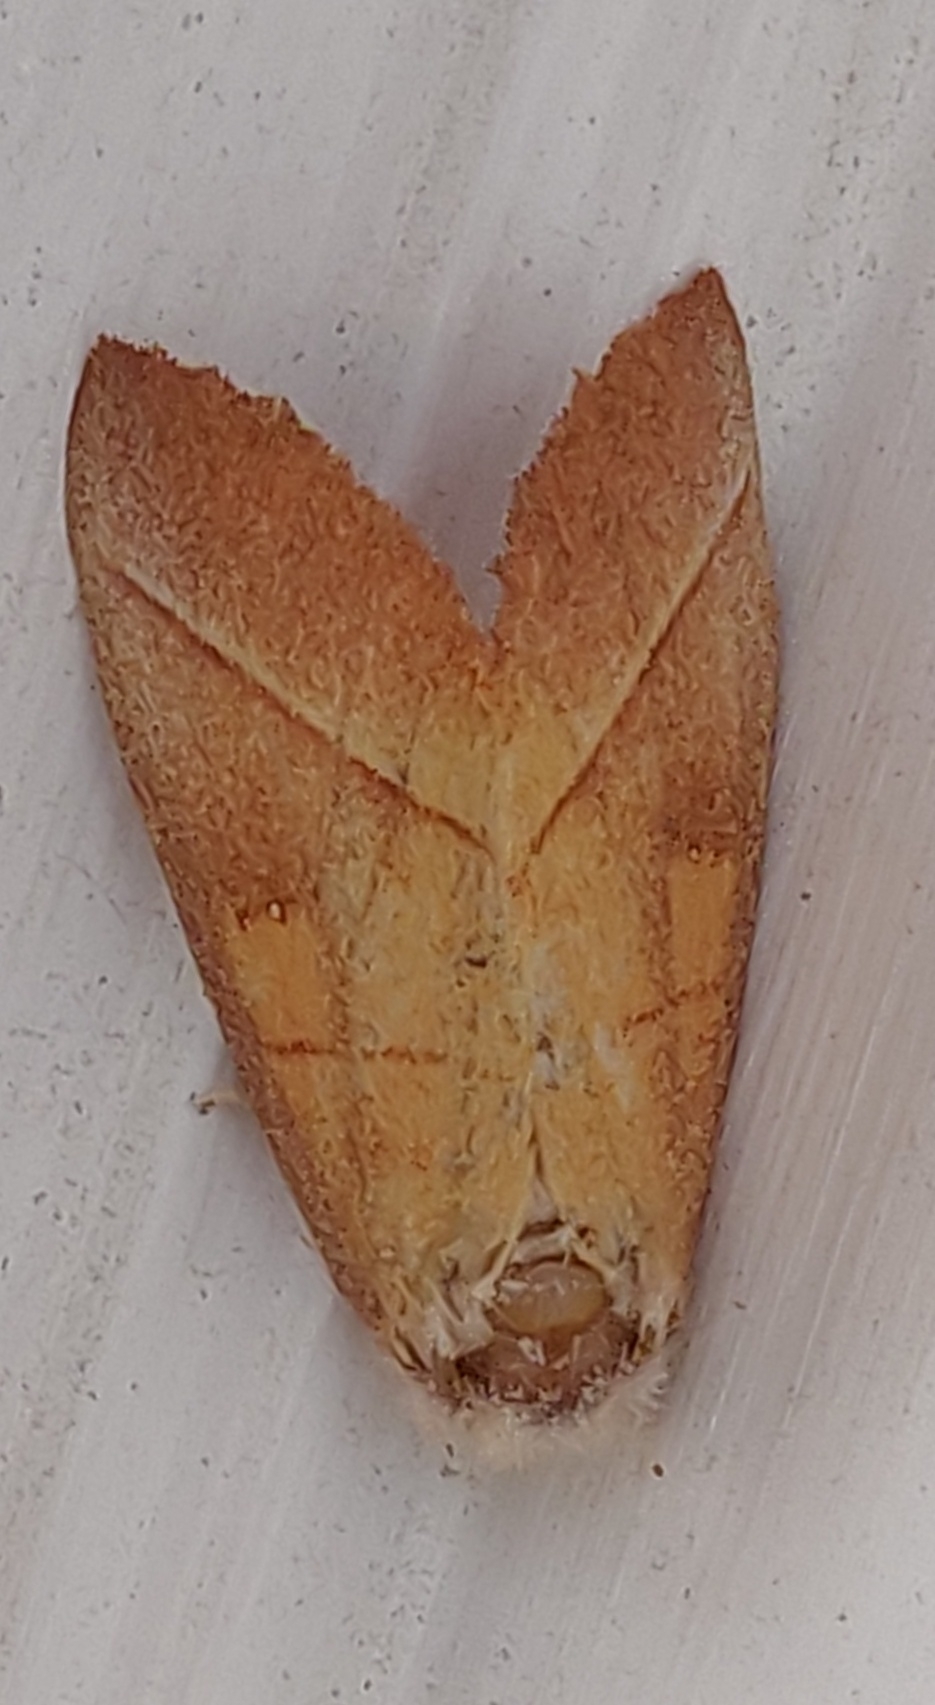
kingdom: Animalia
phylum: Arthropoda
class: Insecta
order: Lepidoptera
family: Notodontidae
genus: Nadata
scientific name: Nadata gibbosa
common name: White-dotted prominent
